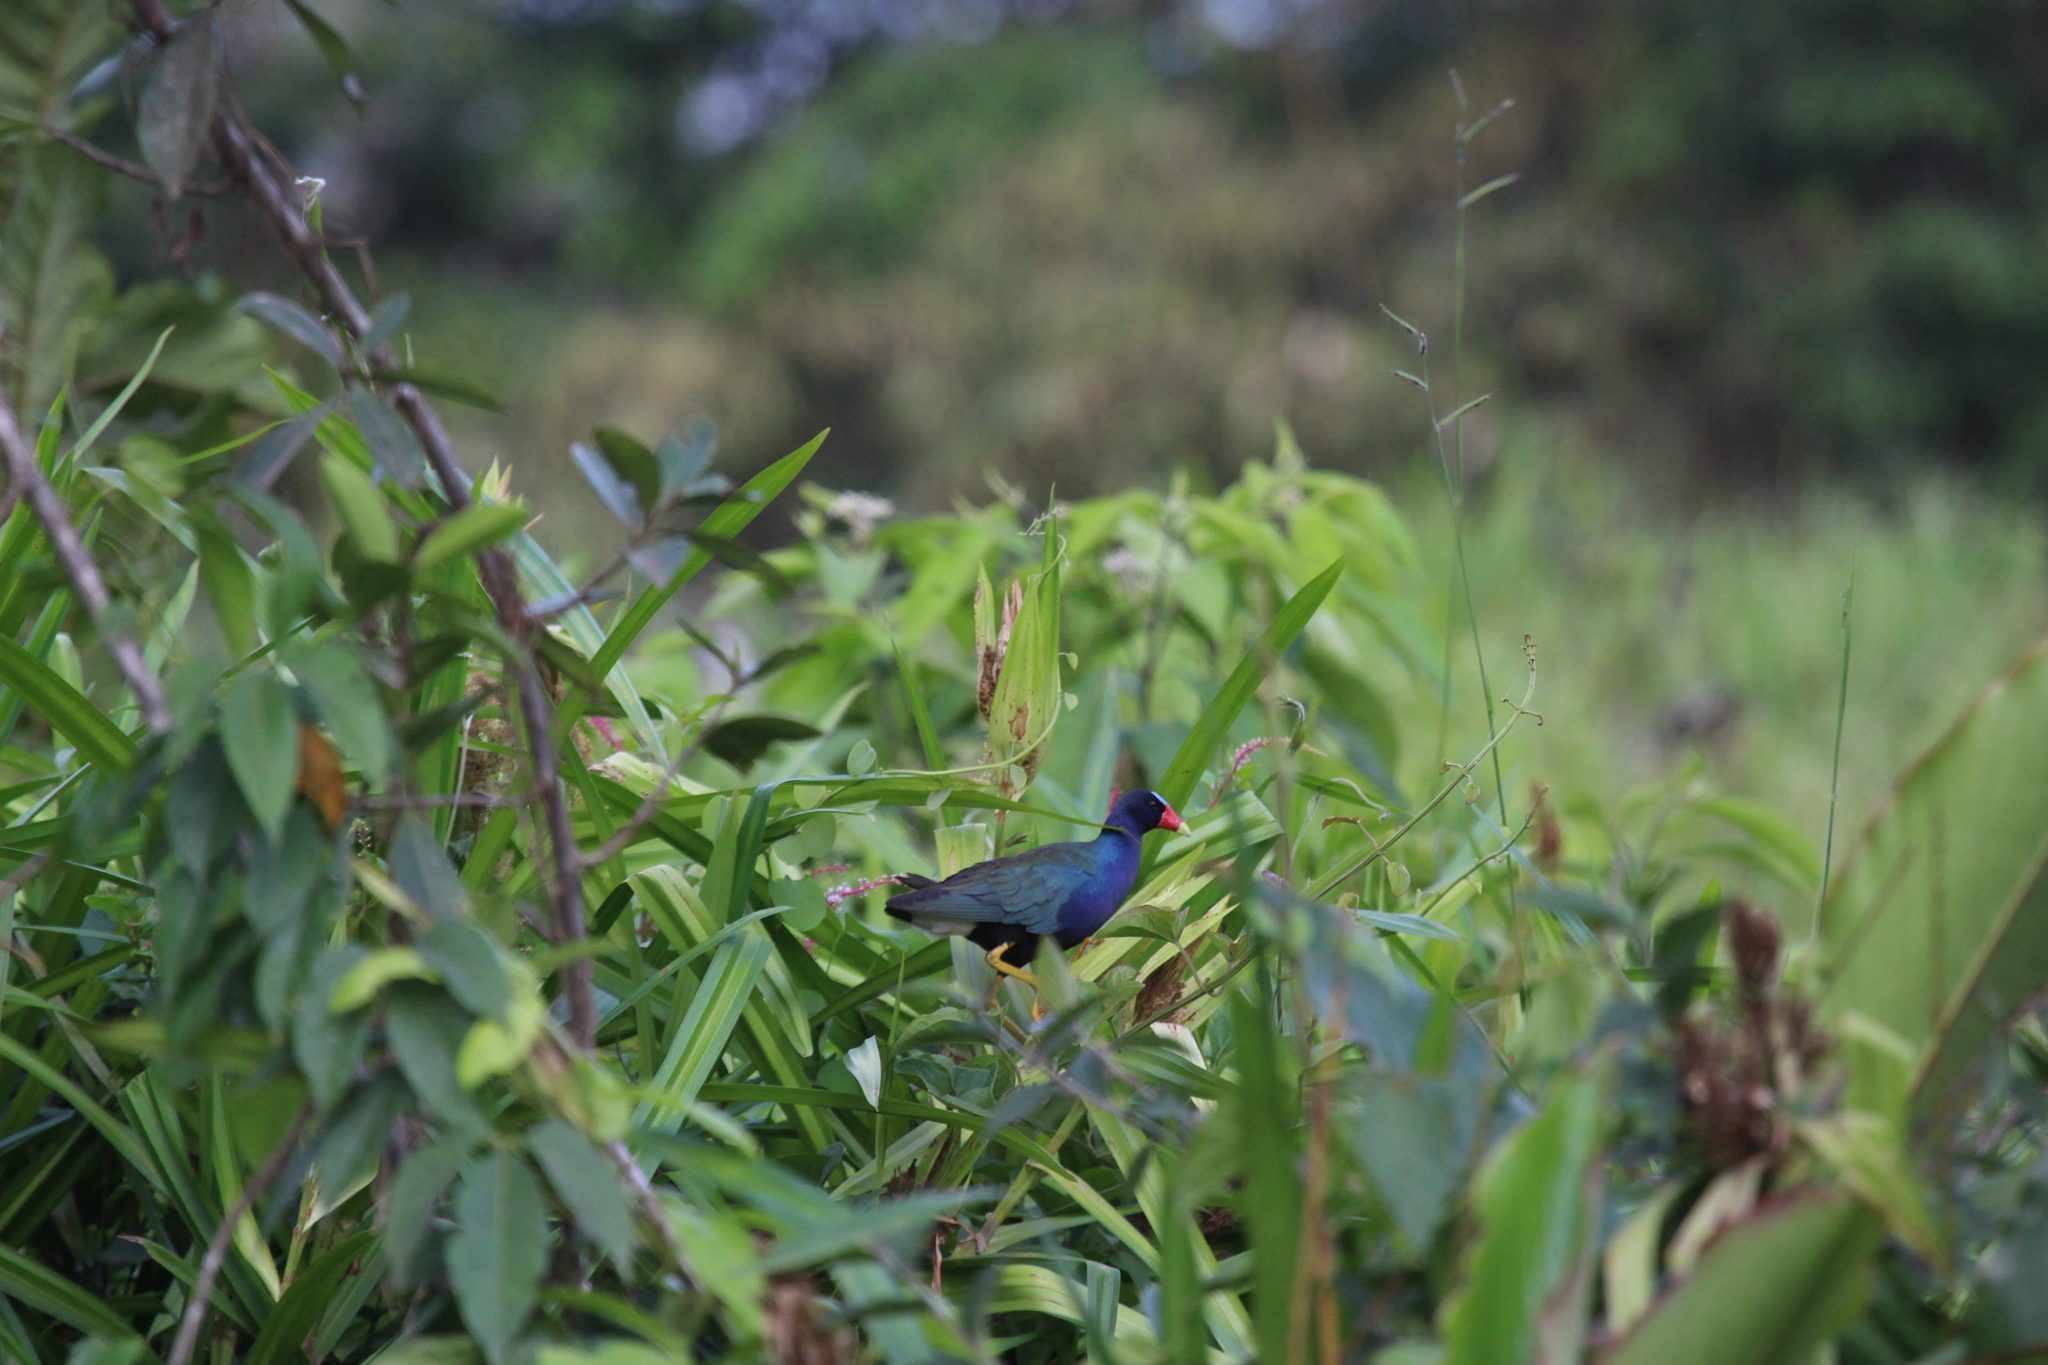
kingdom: Animalia
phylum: Chordata
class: Aves
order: Gruiformes
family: Rallidae
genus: Porphyrio
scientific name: Porphyrio martinica
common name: Purple gallinule
